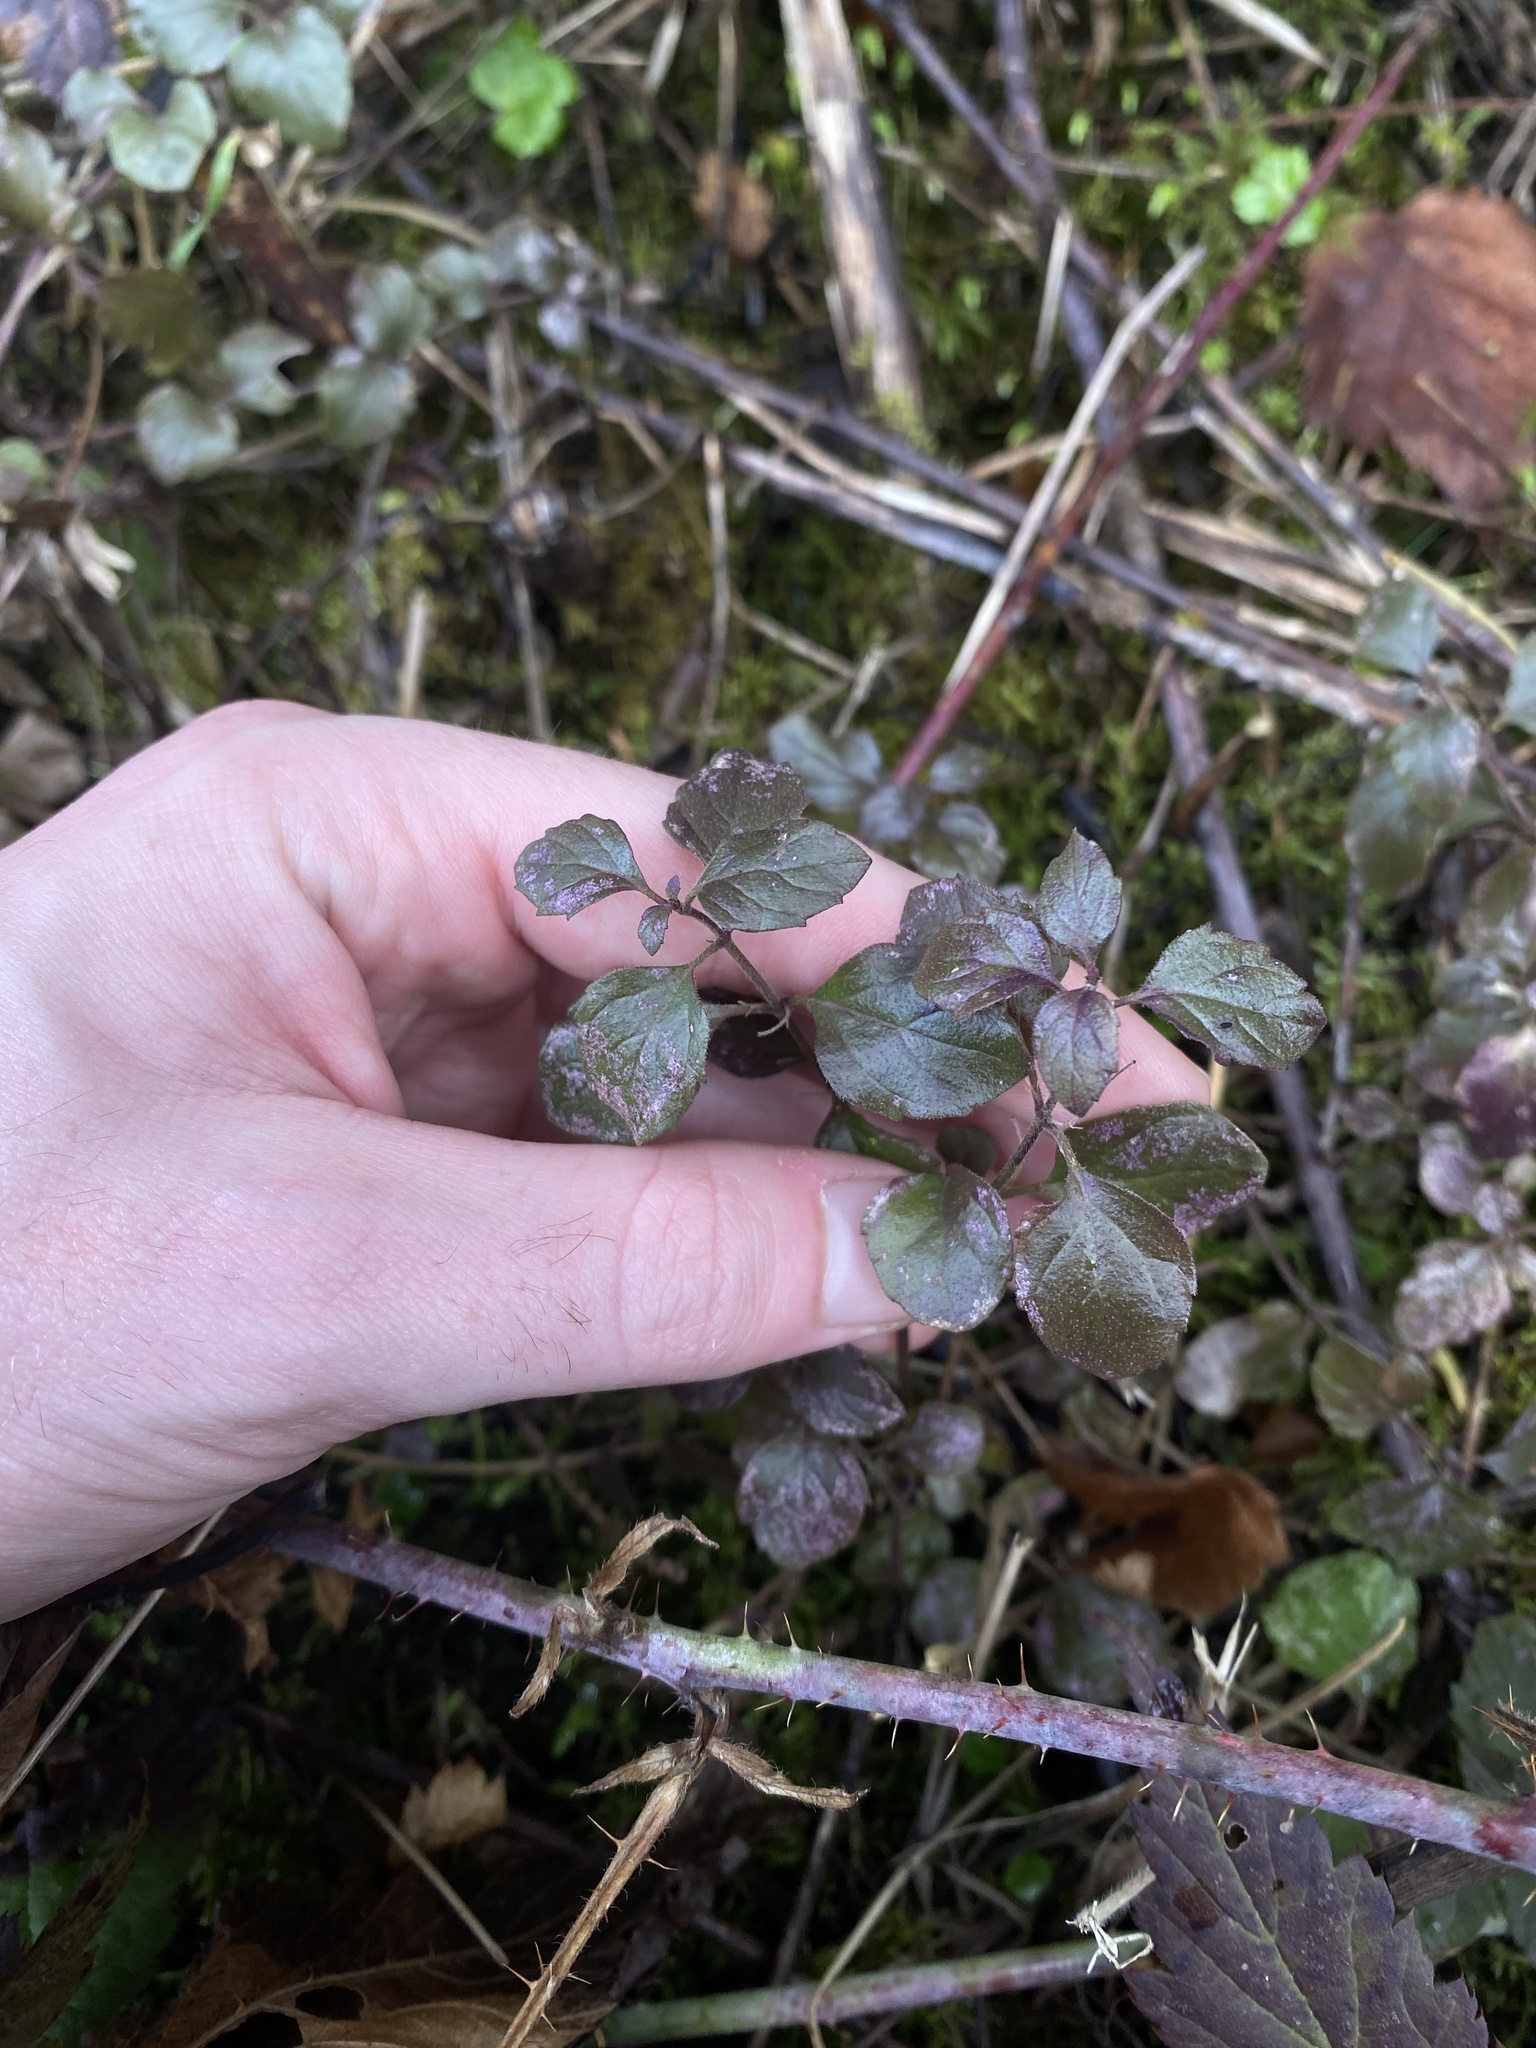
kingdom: Plantae
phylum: Tracheophyta
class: Magnoliopsida
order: Lamiales
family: Lamiaceae
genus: Micromeria
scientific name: Micromeria douglasii
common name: Yerba buena
